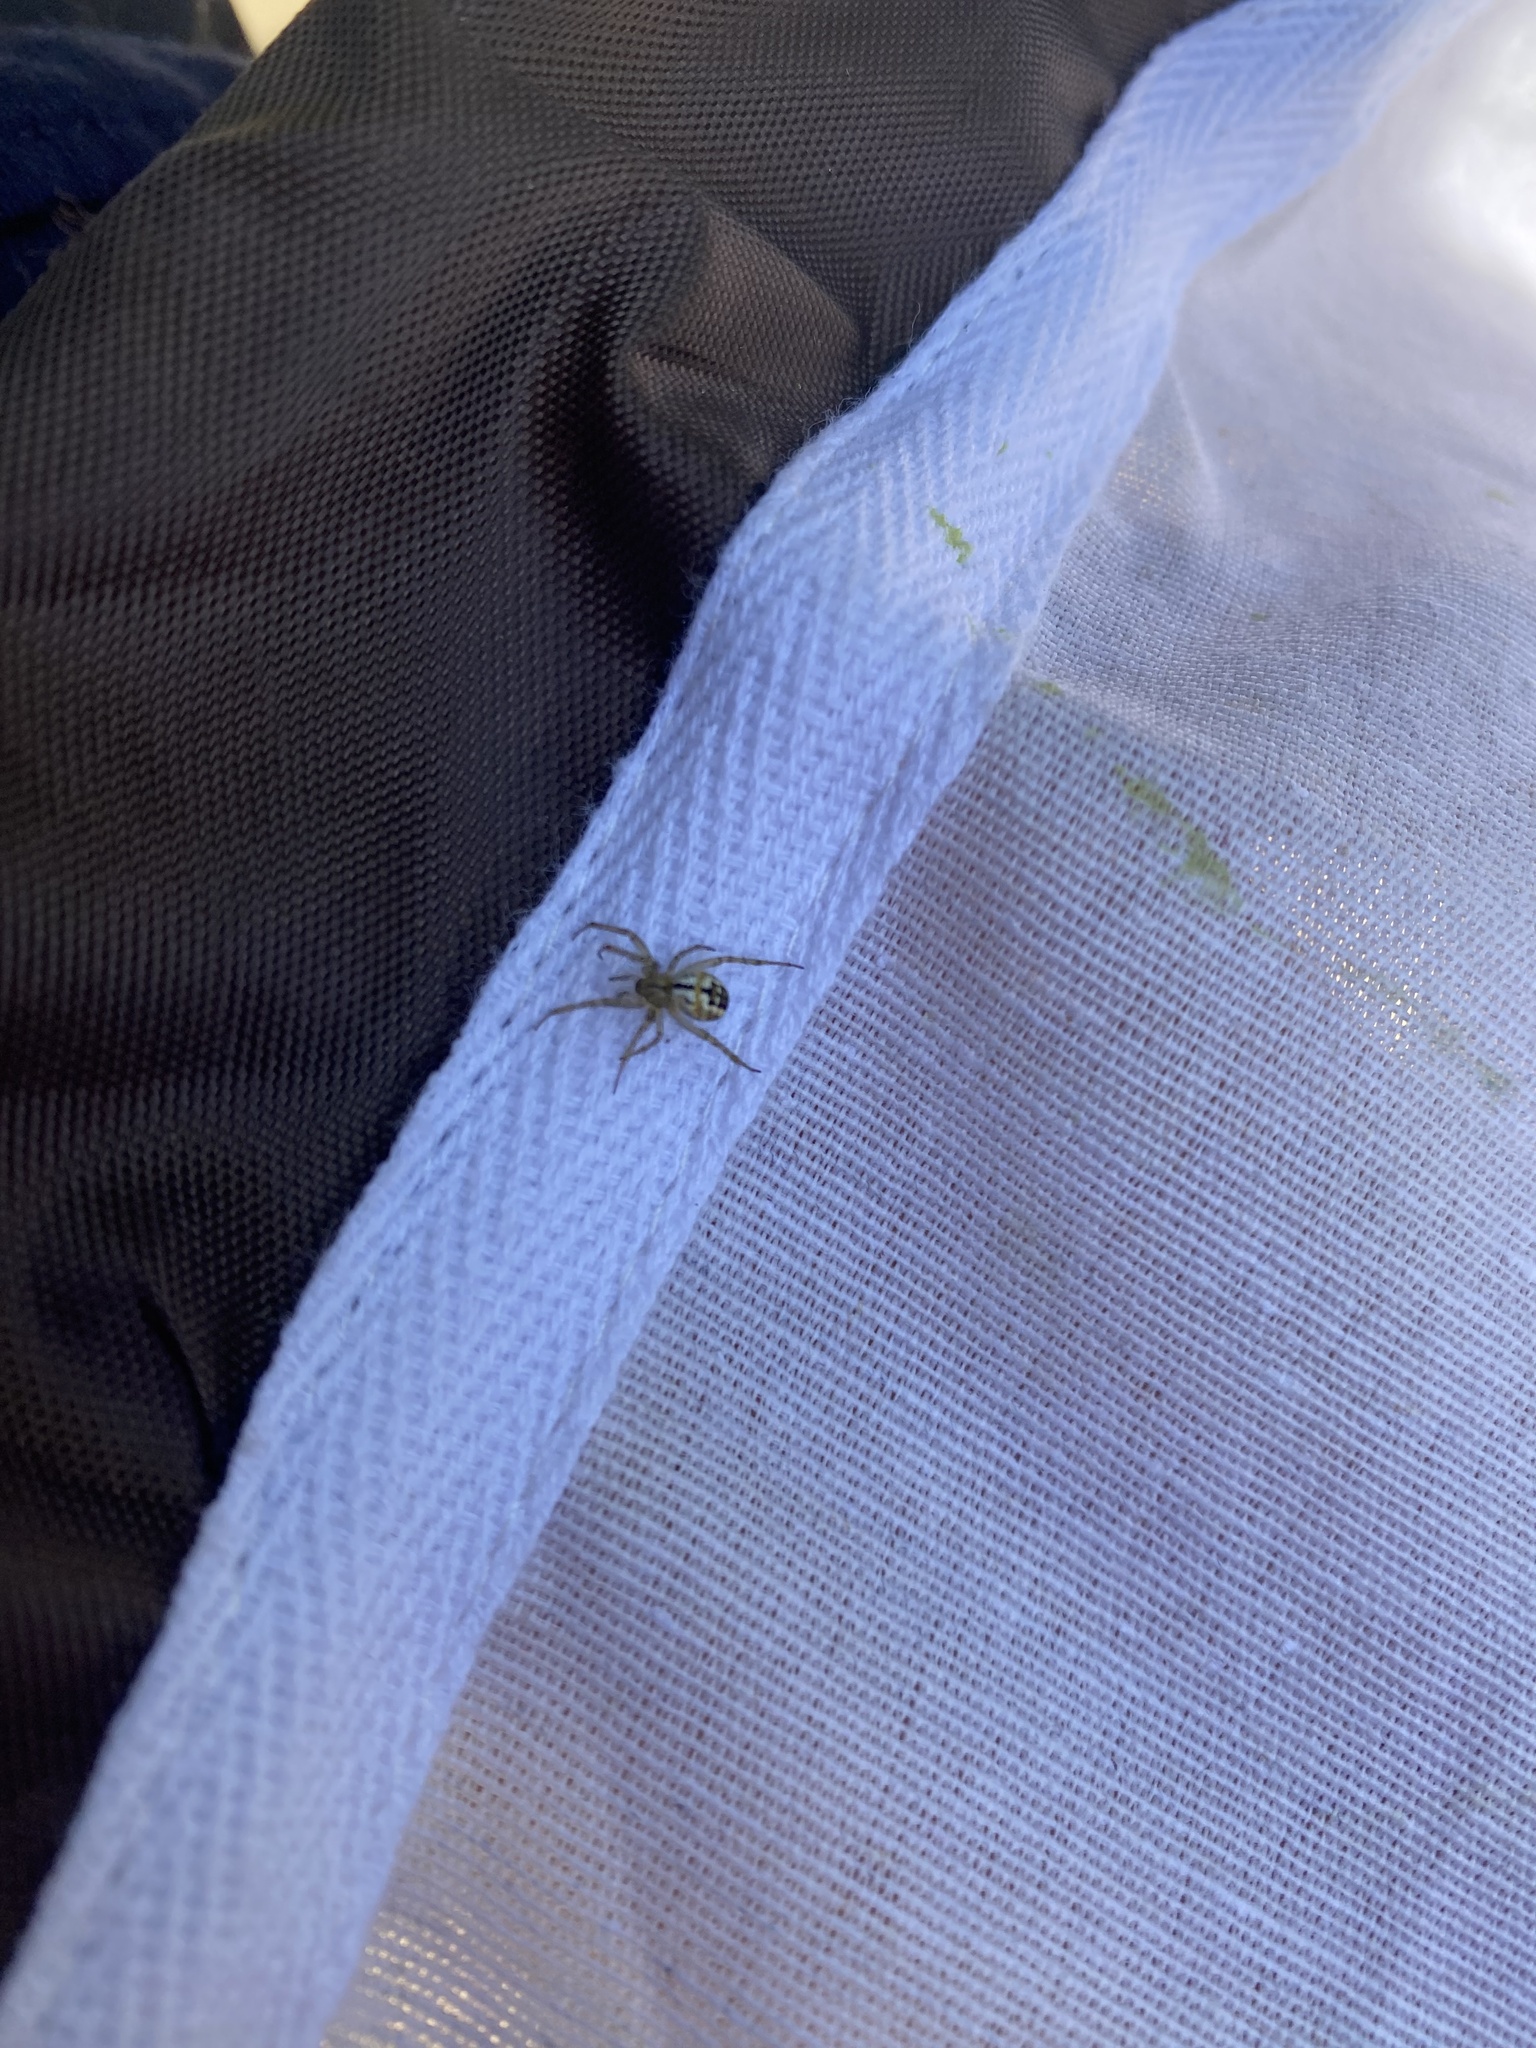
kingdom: Animalia
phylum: Arthropoda
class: Arachnida
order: Araneae
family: Araneidae
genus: Mangora
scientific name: Mangora acalypha
